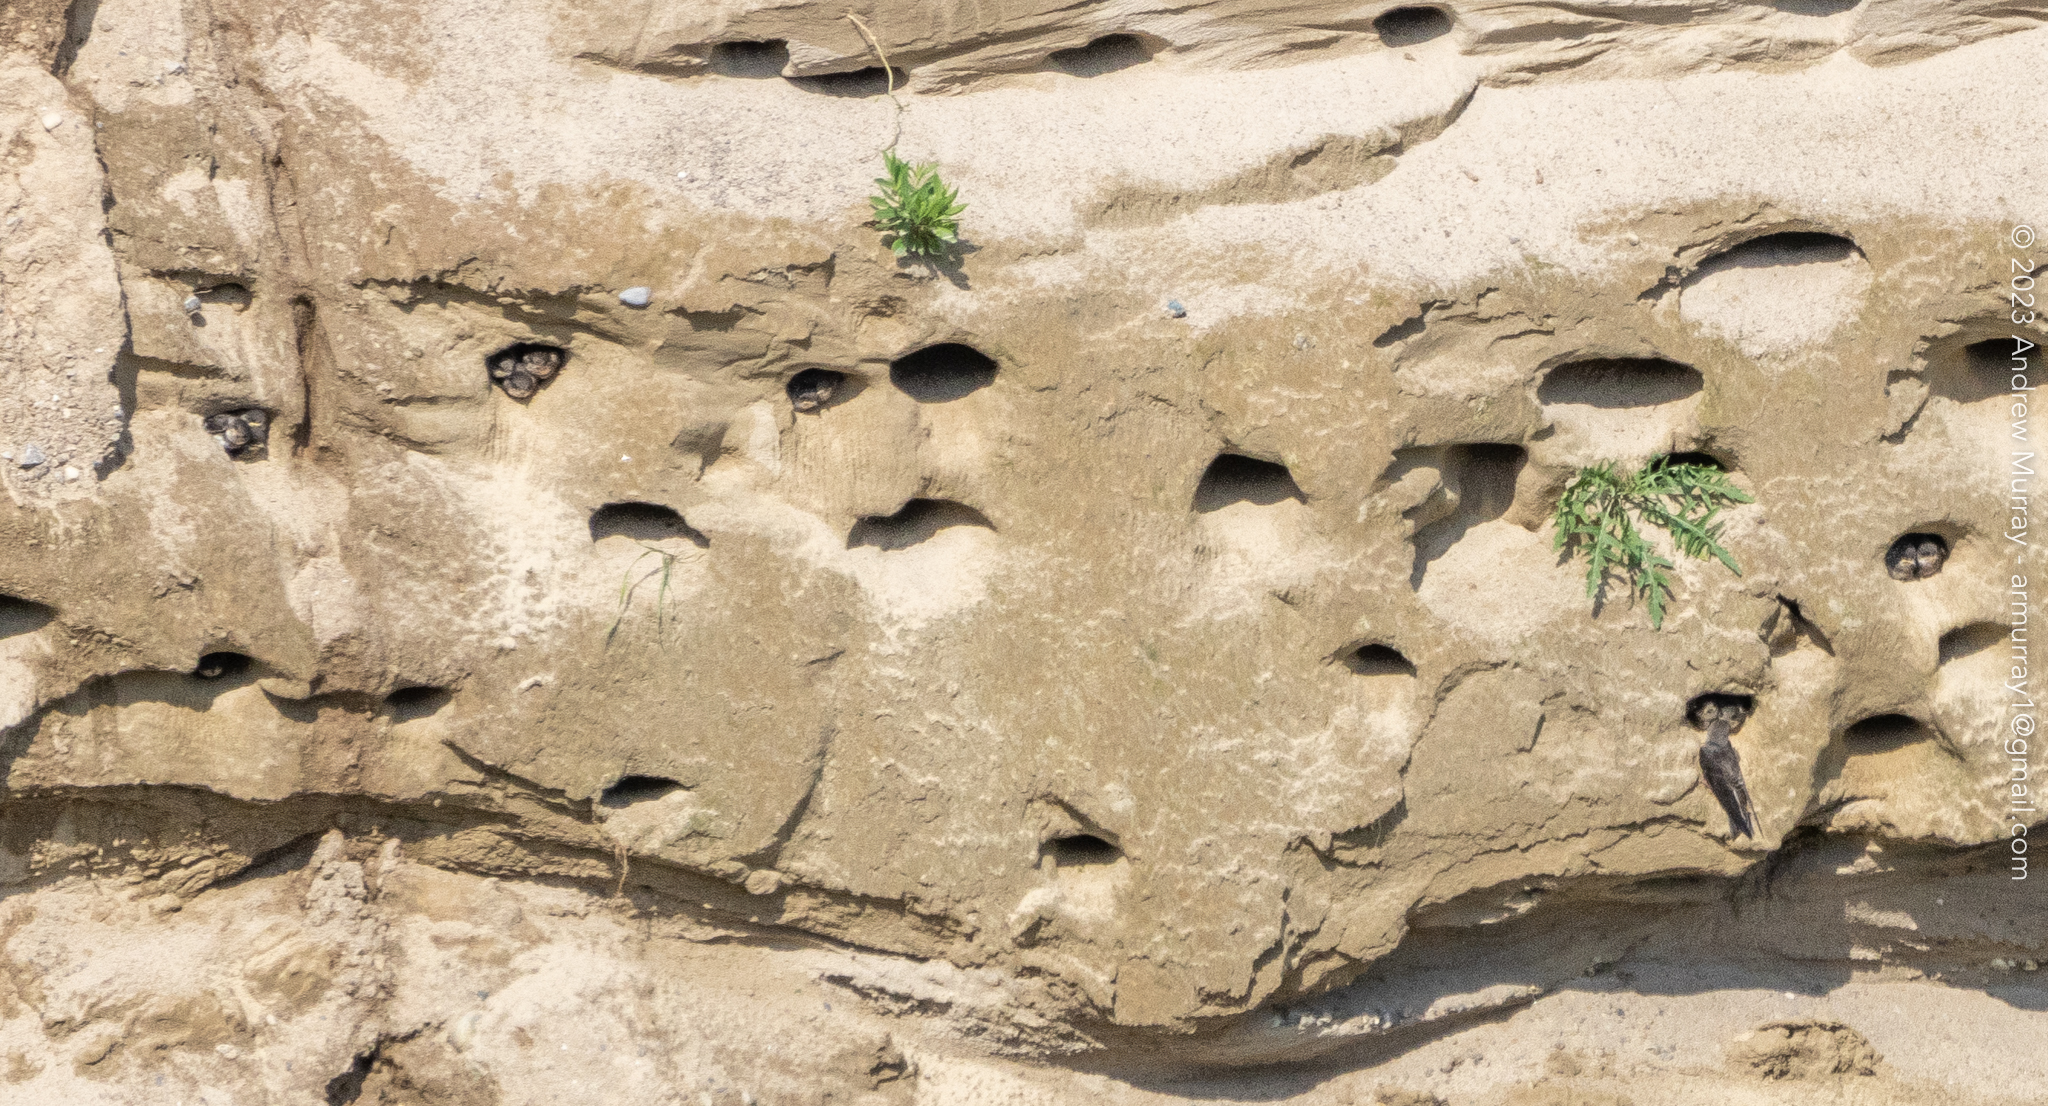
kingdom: Animalia
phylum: Chordata
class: Aves
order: Passeriformes
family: Hirundinidae
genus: Riparia
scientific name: Riparia riparia
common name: Sand martin
